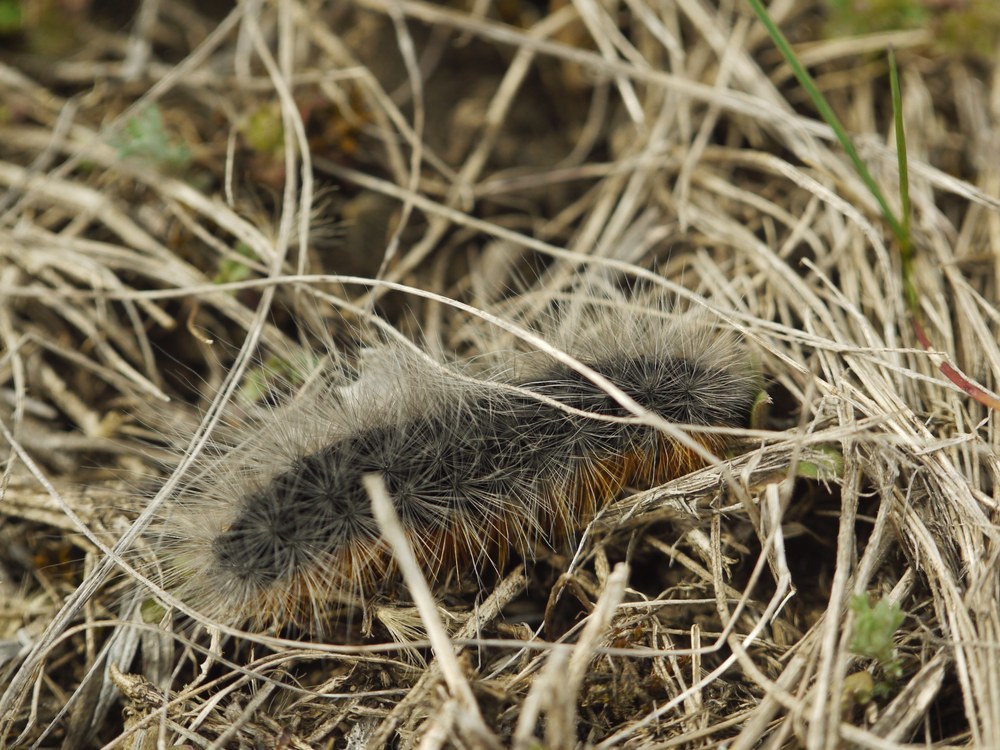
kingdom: Animalia
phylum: Arthropoda
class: Insecta
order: Lepidoptera
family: Erebidae
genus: Eucharia
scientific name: Eucharia festiva
